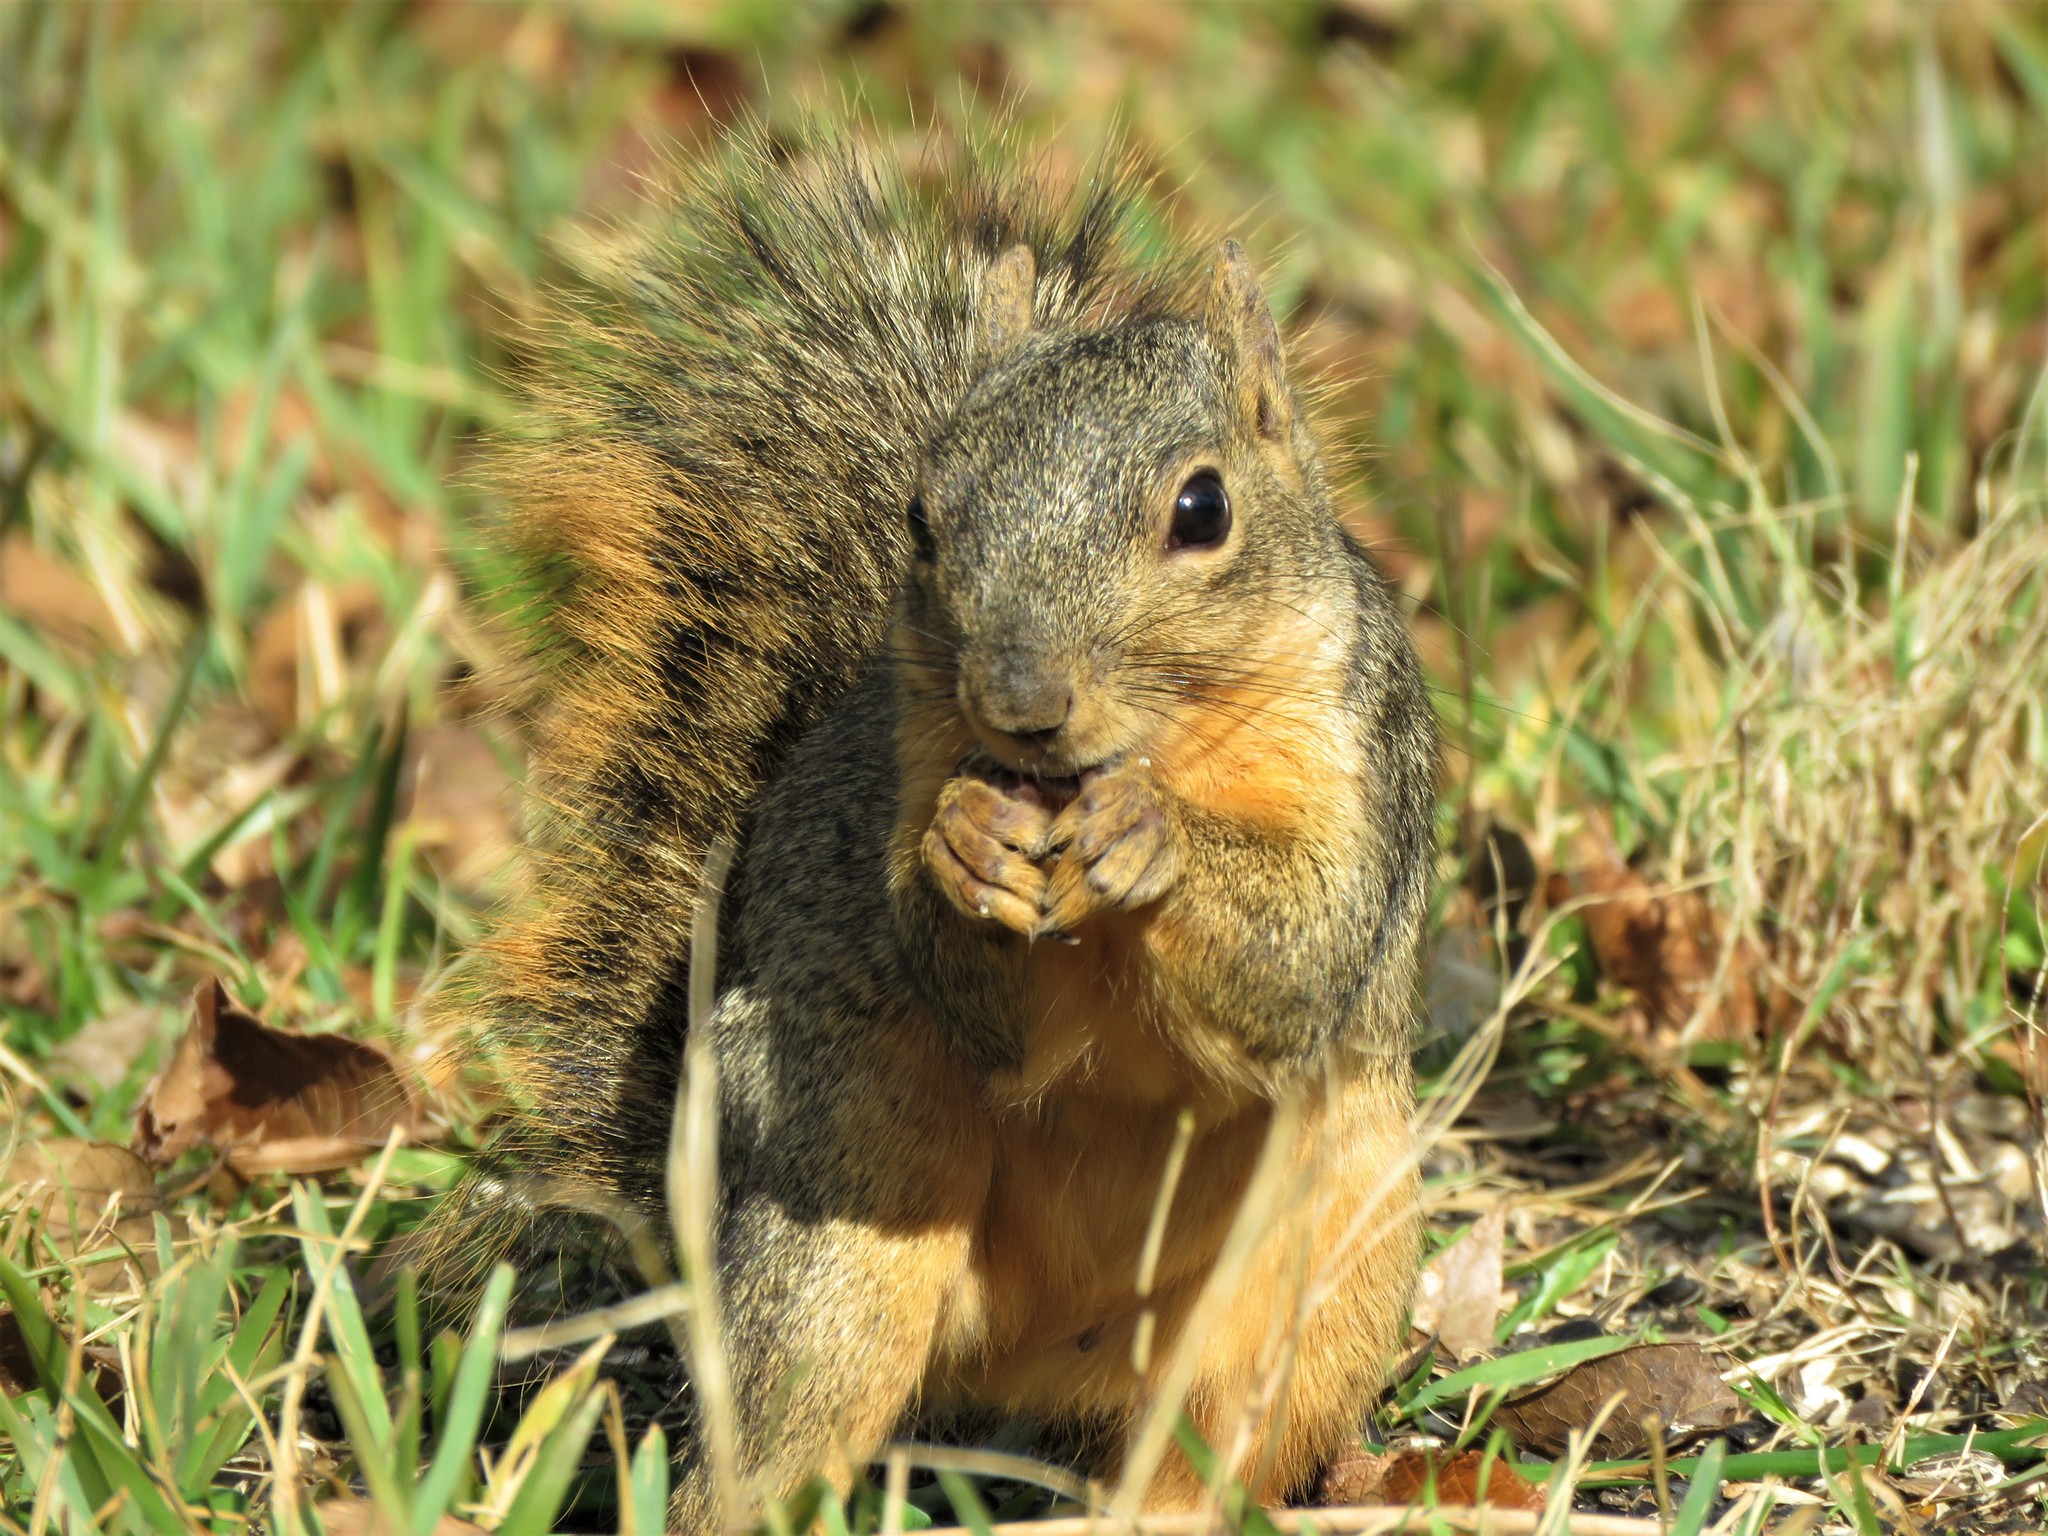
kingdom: Animalia
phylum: Chordata
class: Mammalia
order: Rodentia
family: Sciuridae
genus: Sciurus
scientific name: Sciurus niger
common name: Fox squirrel
